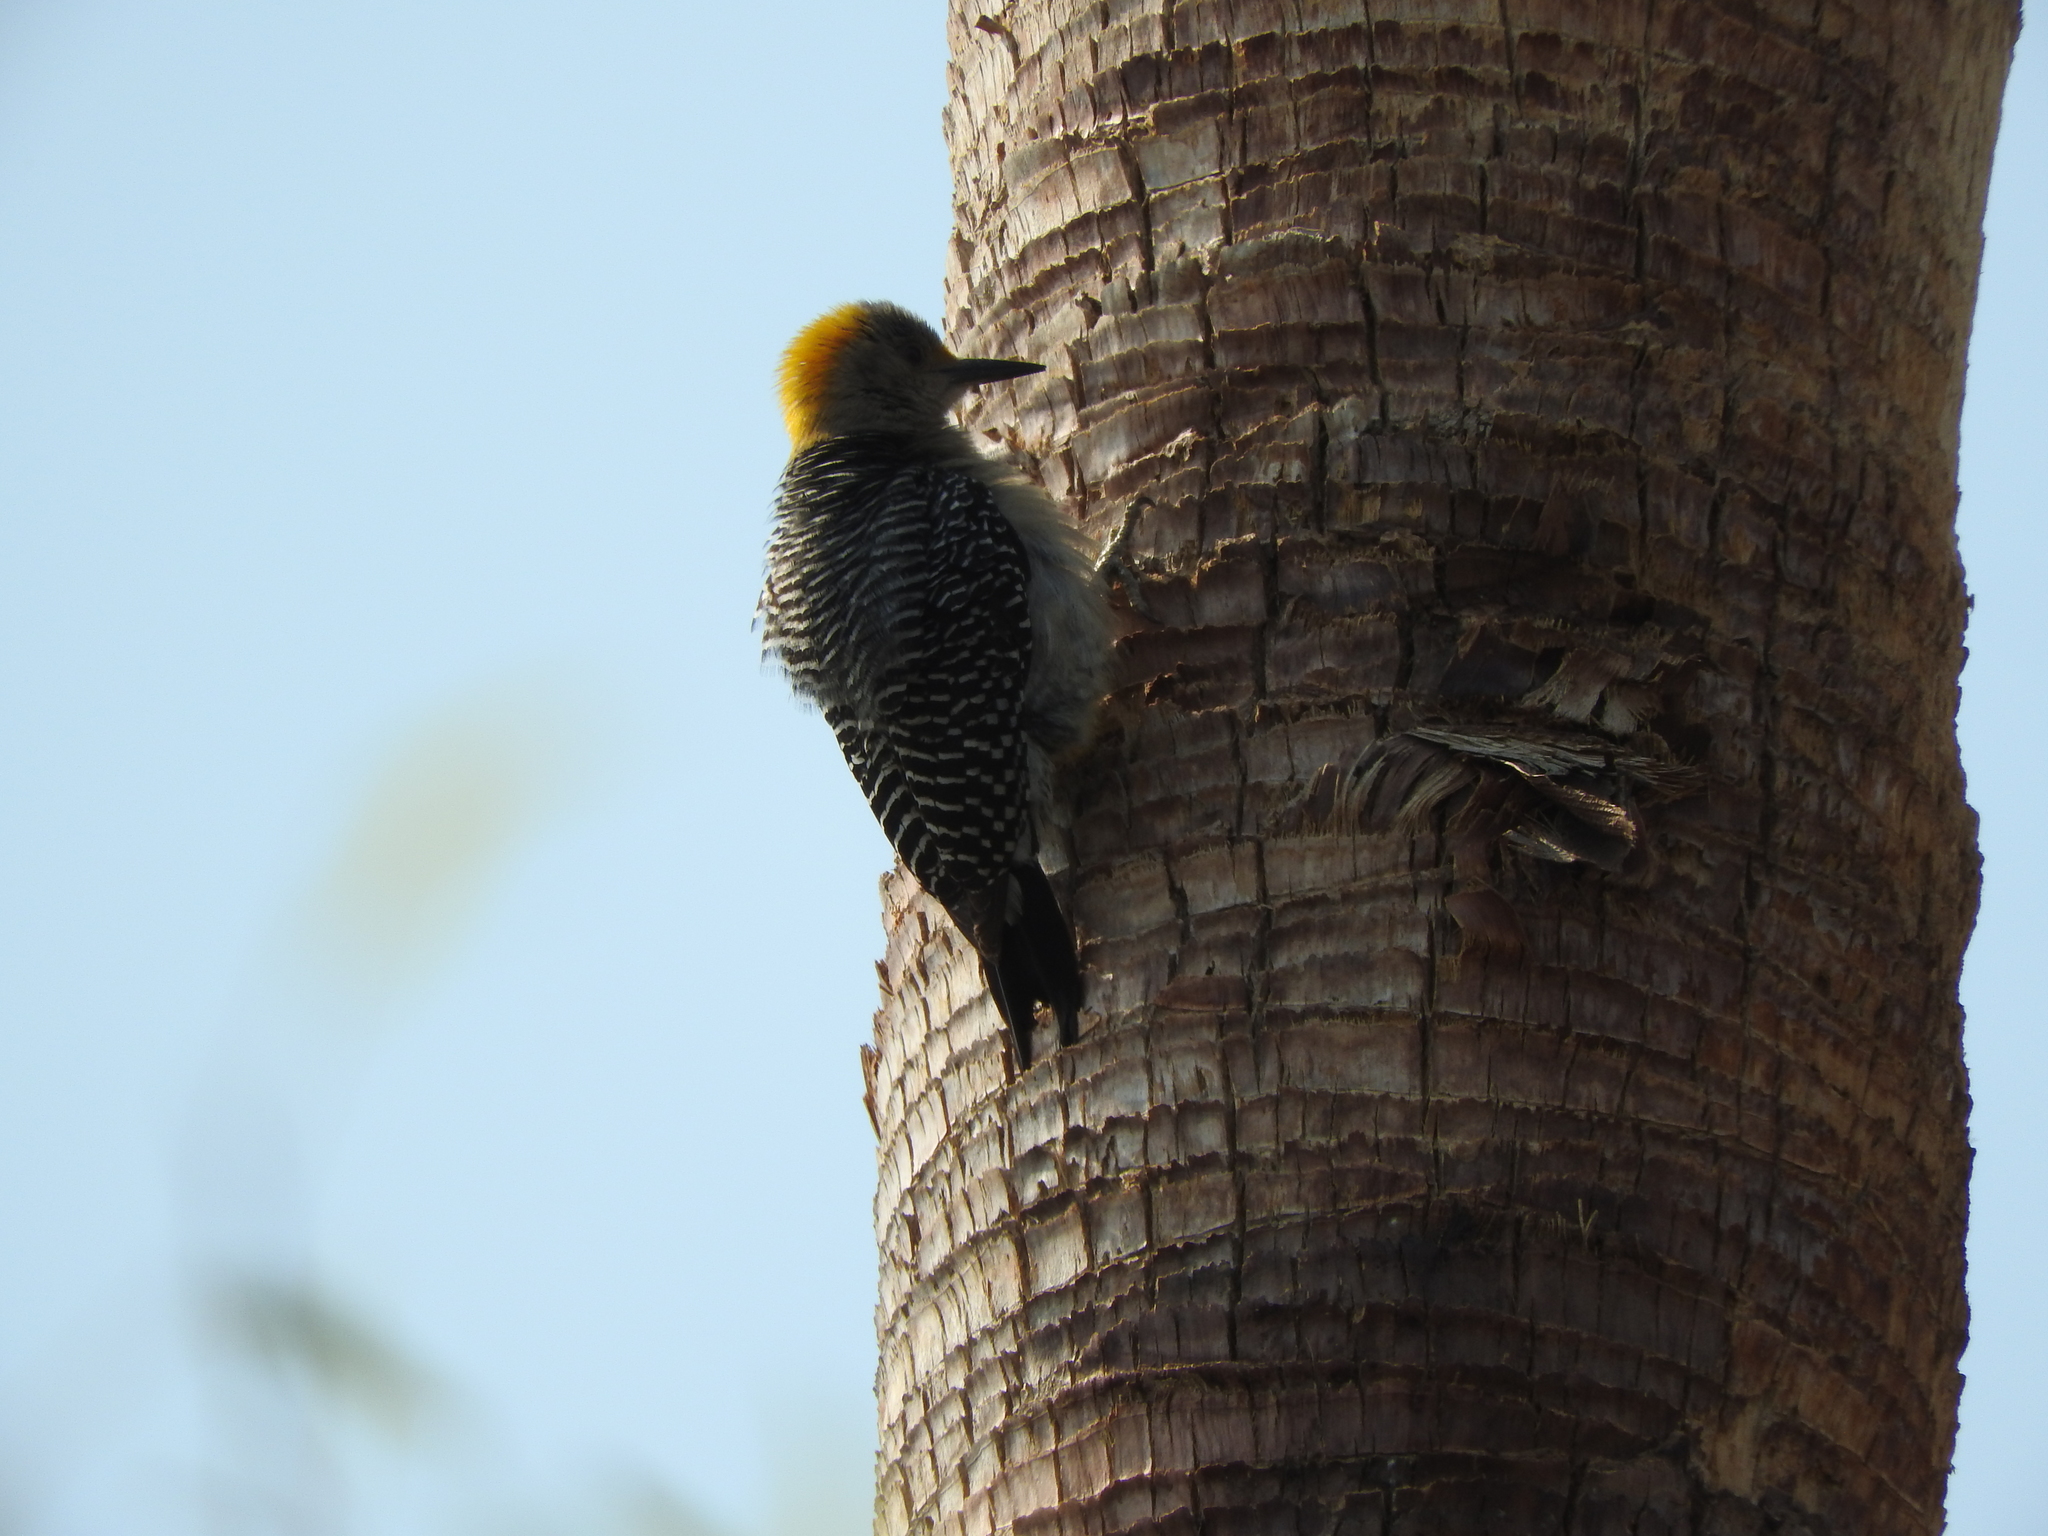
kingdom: Animalia
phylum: Chordata
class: Aves
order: Piciformes
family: Picidae
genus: Melanerpes
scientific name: Melanerpes aurifrons
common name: Golden-fronted woodpecker
